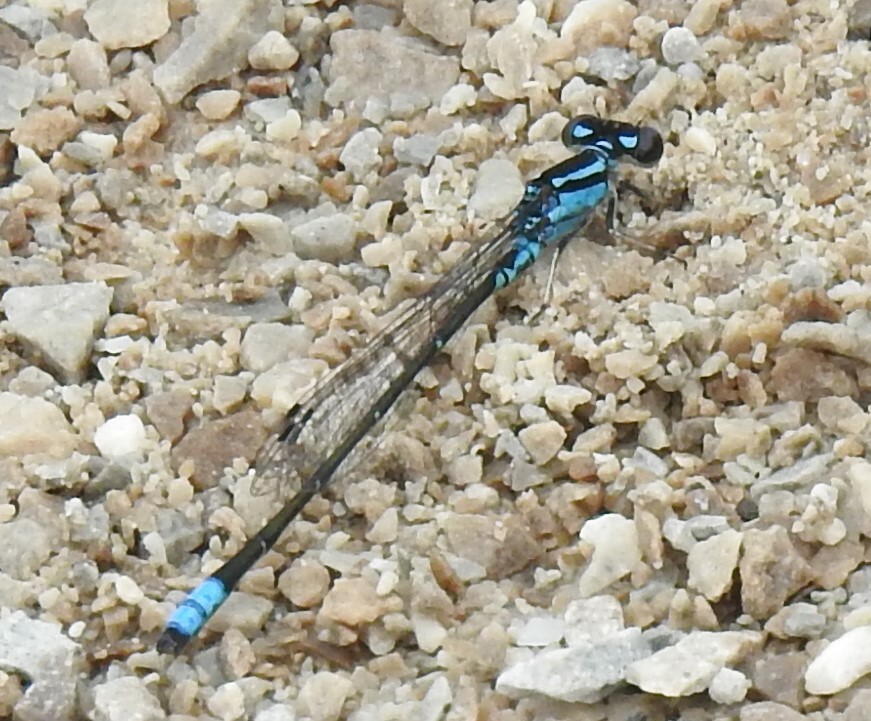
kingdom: Animalia
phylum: Arthropoda
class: Insecta
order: Odonata
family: Coenagrionidae
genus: Enallagma
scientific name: Enallagma geminatum
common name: Skimming bluet
